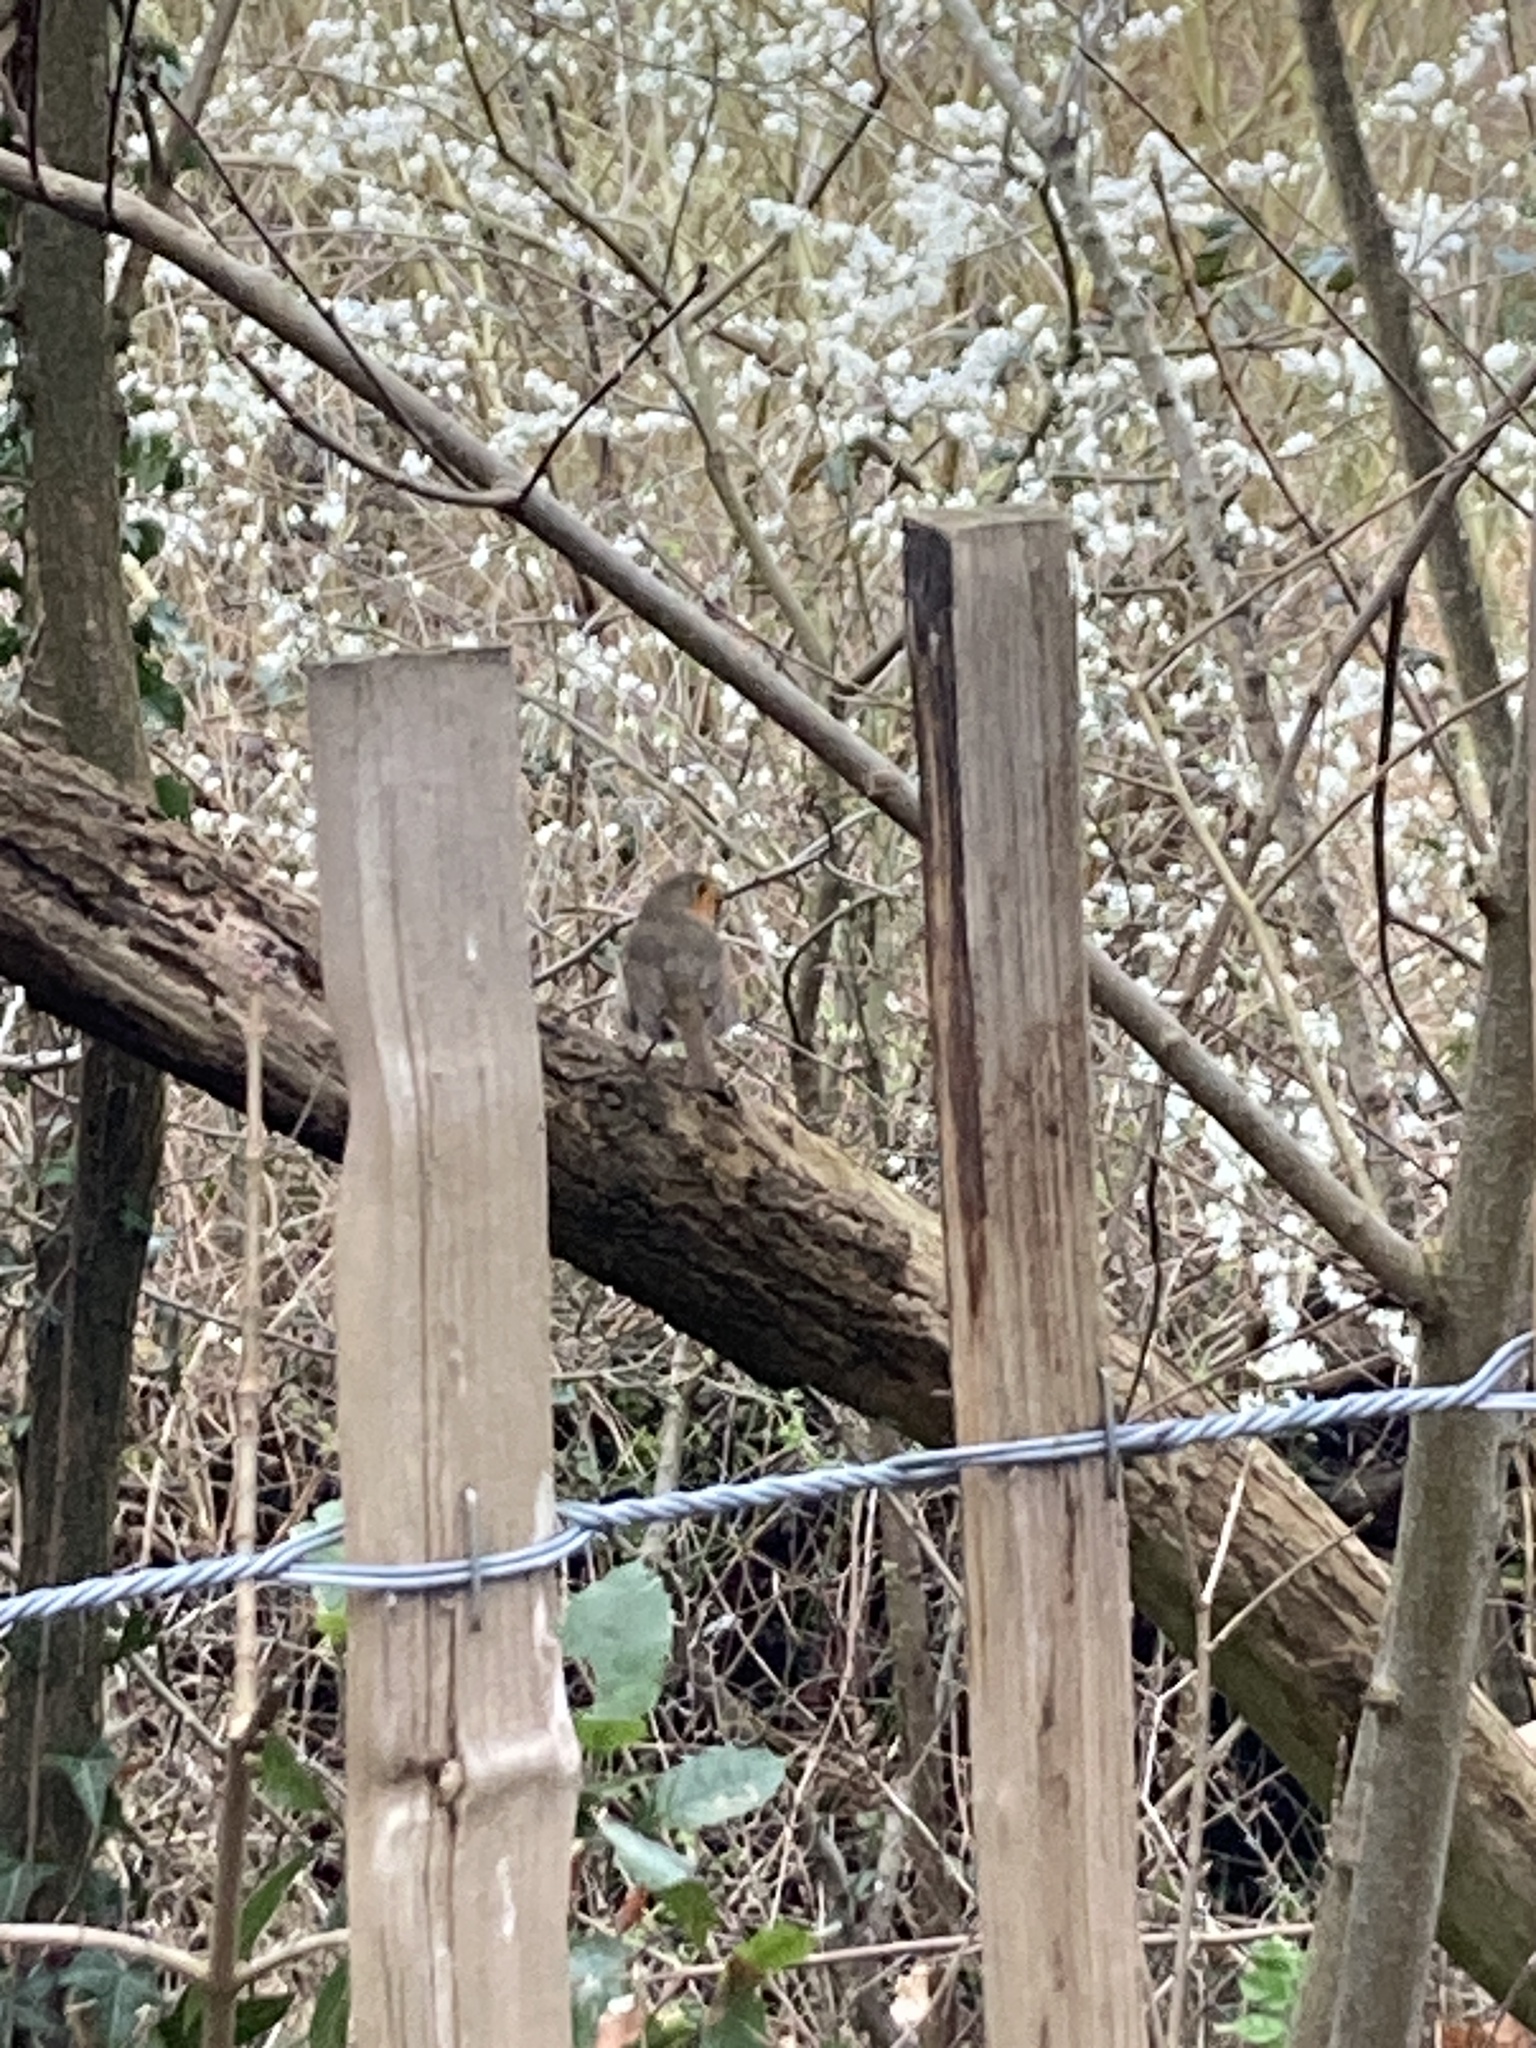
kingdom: Animalia
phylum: Chordata
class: Aves
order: Passeriformes
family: Muscicapidae
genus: Erithacus
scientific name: Erithacus rubecula
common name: European robin
